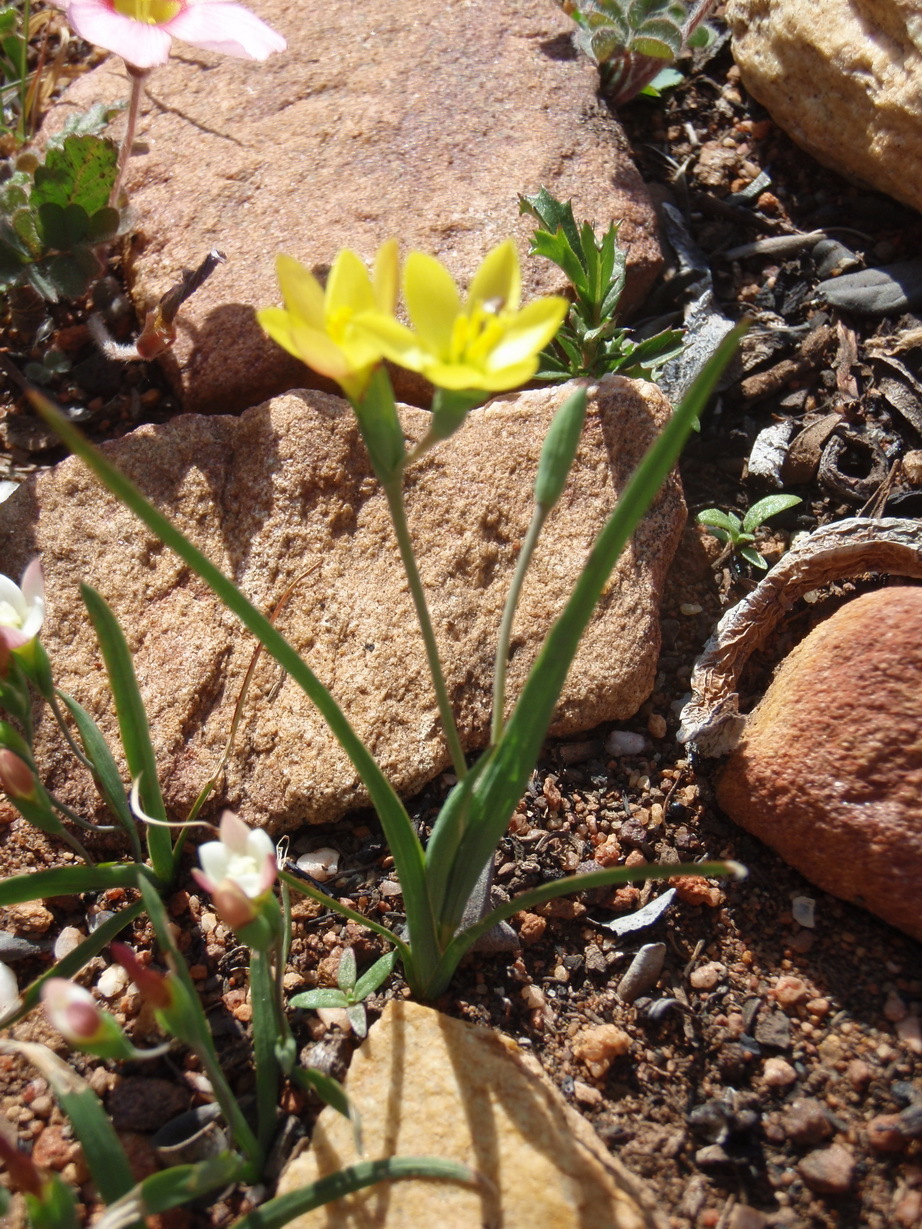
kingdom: Plantae
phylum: Tracheophyta
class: Liliopsida
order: Asparagales
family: Iridaceae
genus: Geissorhiza
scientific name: Geissorhiza ornithogaloides
